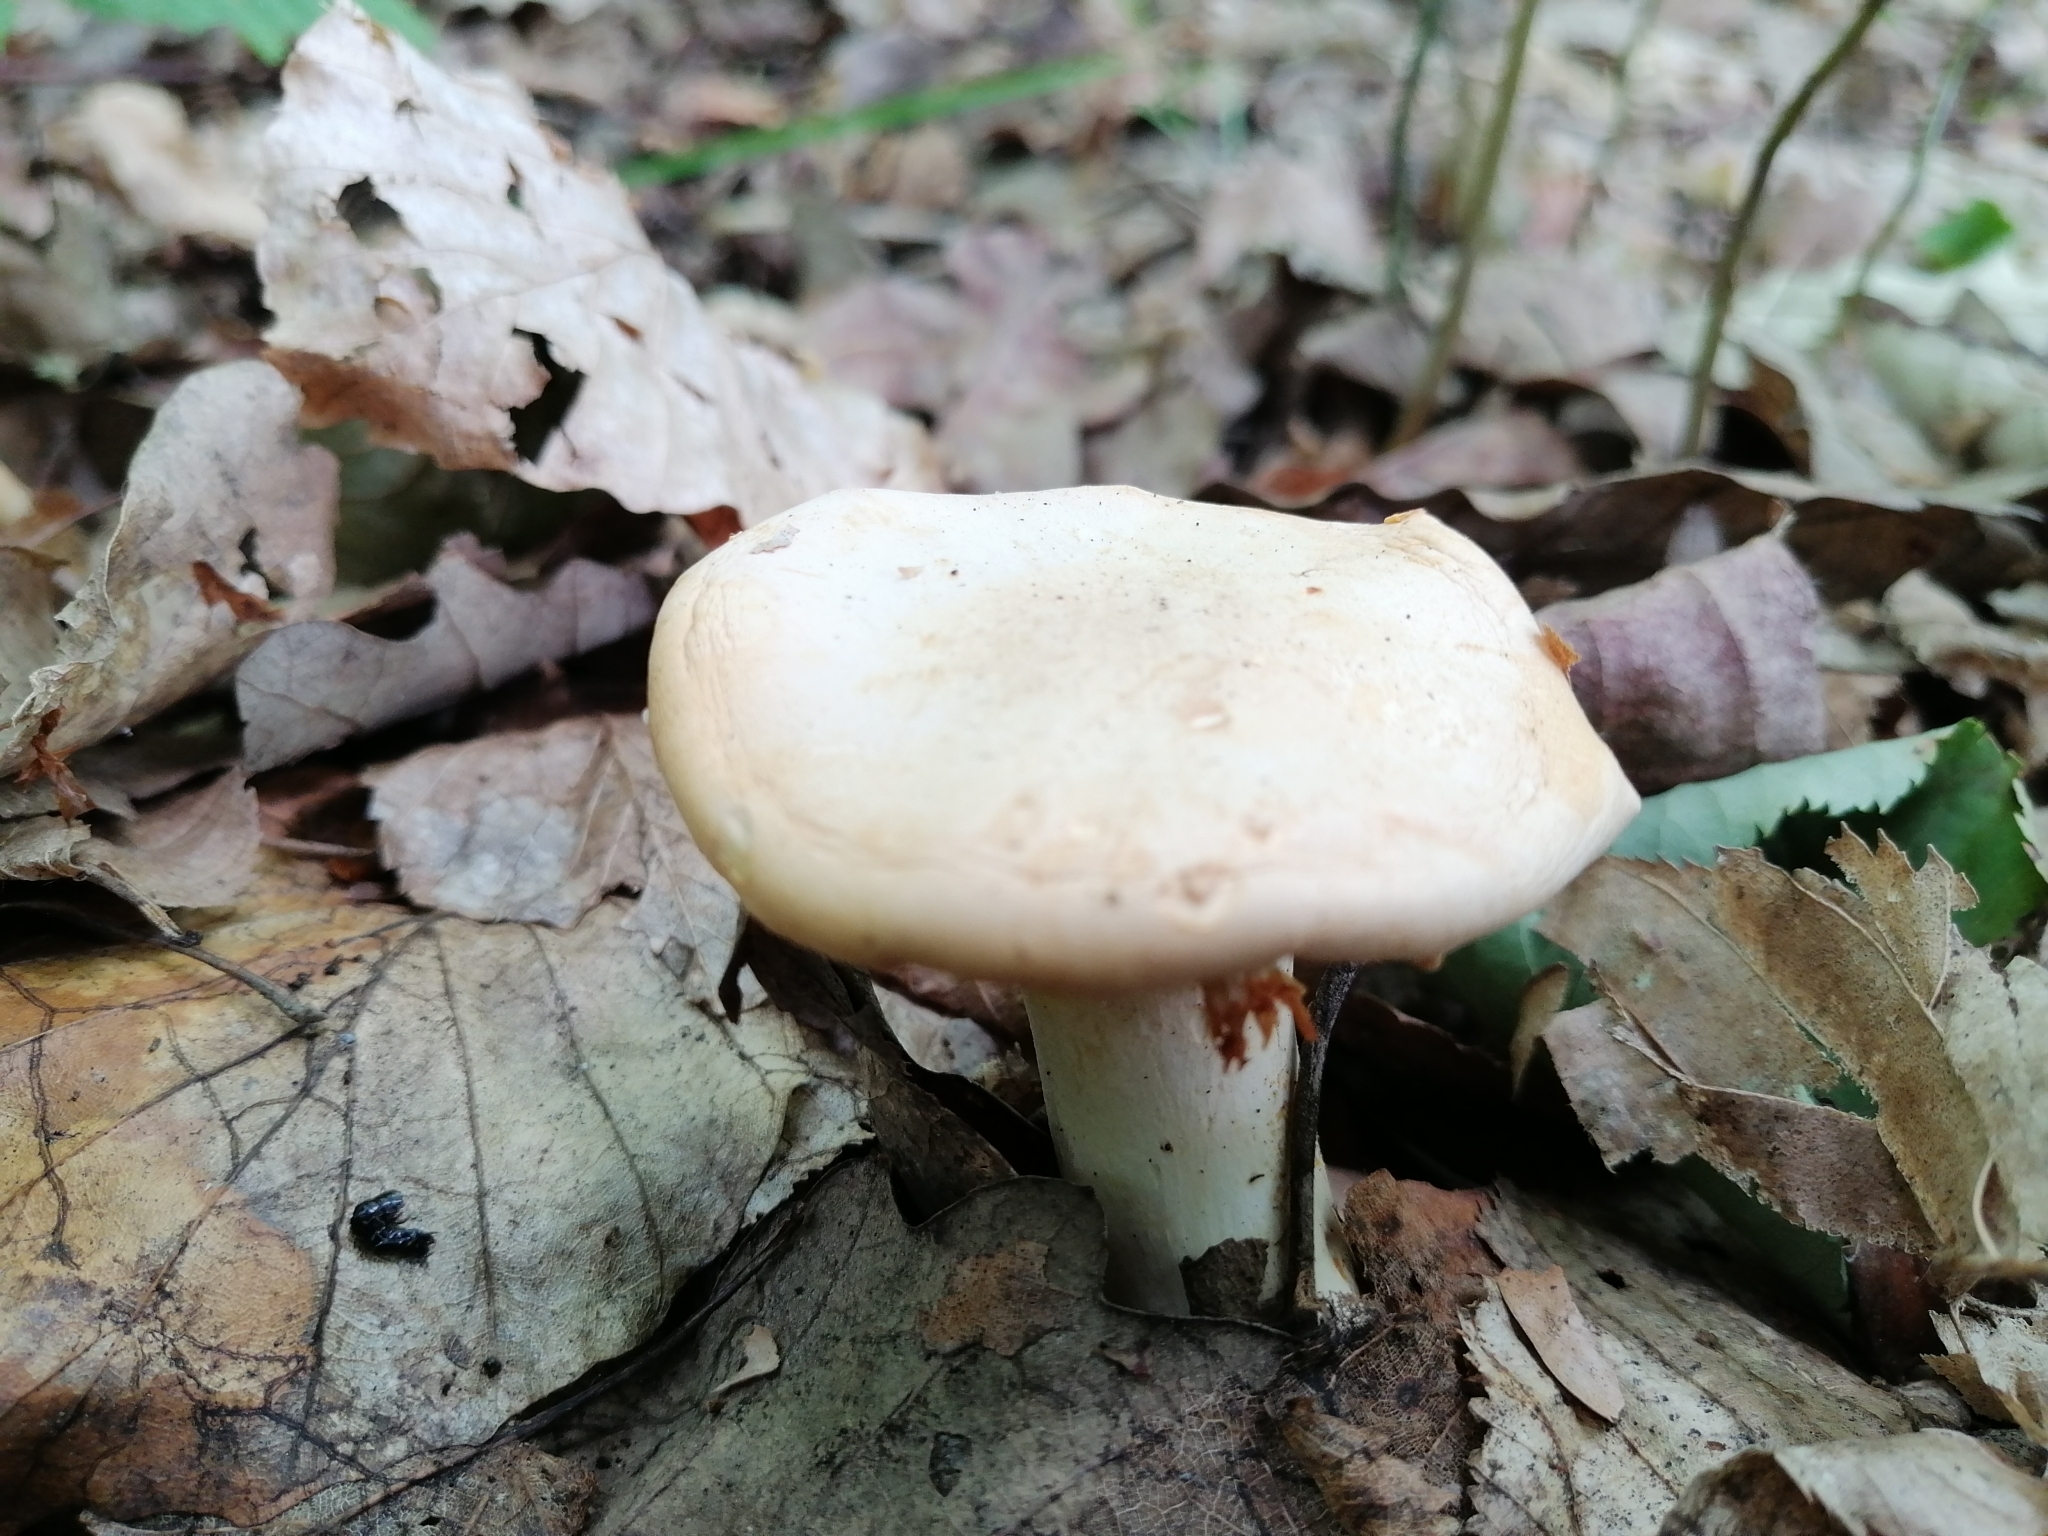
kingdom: Fungi
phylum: Basidiomycota
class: Agaricomycetes
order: Cantharellales
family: Hydnaceae
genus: Cantharellus
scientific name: Cantharellus pallens
